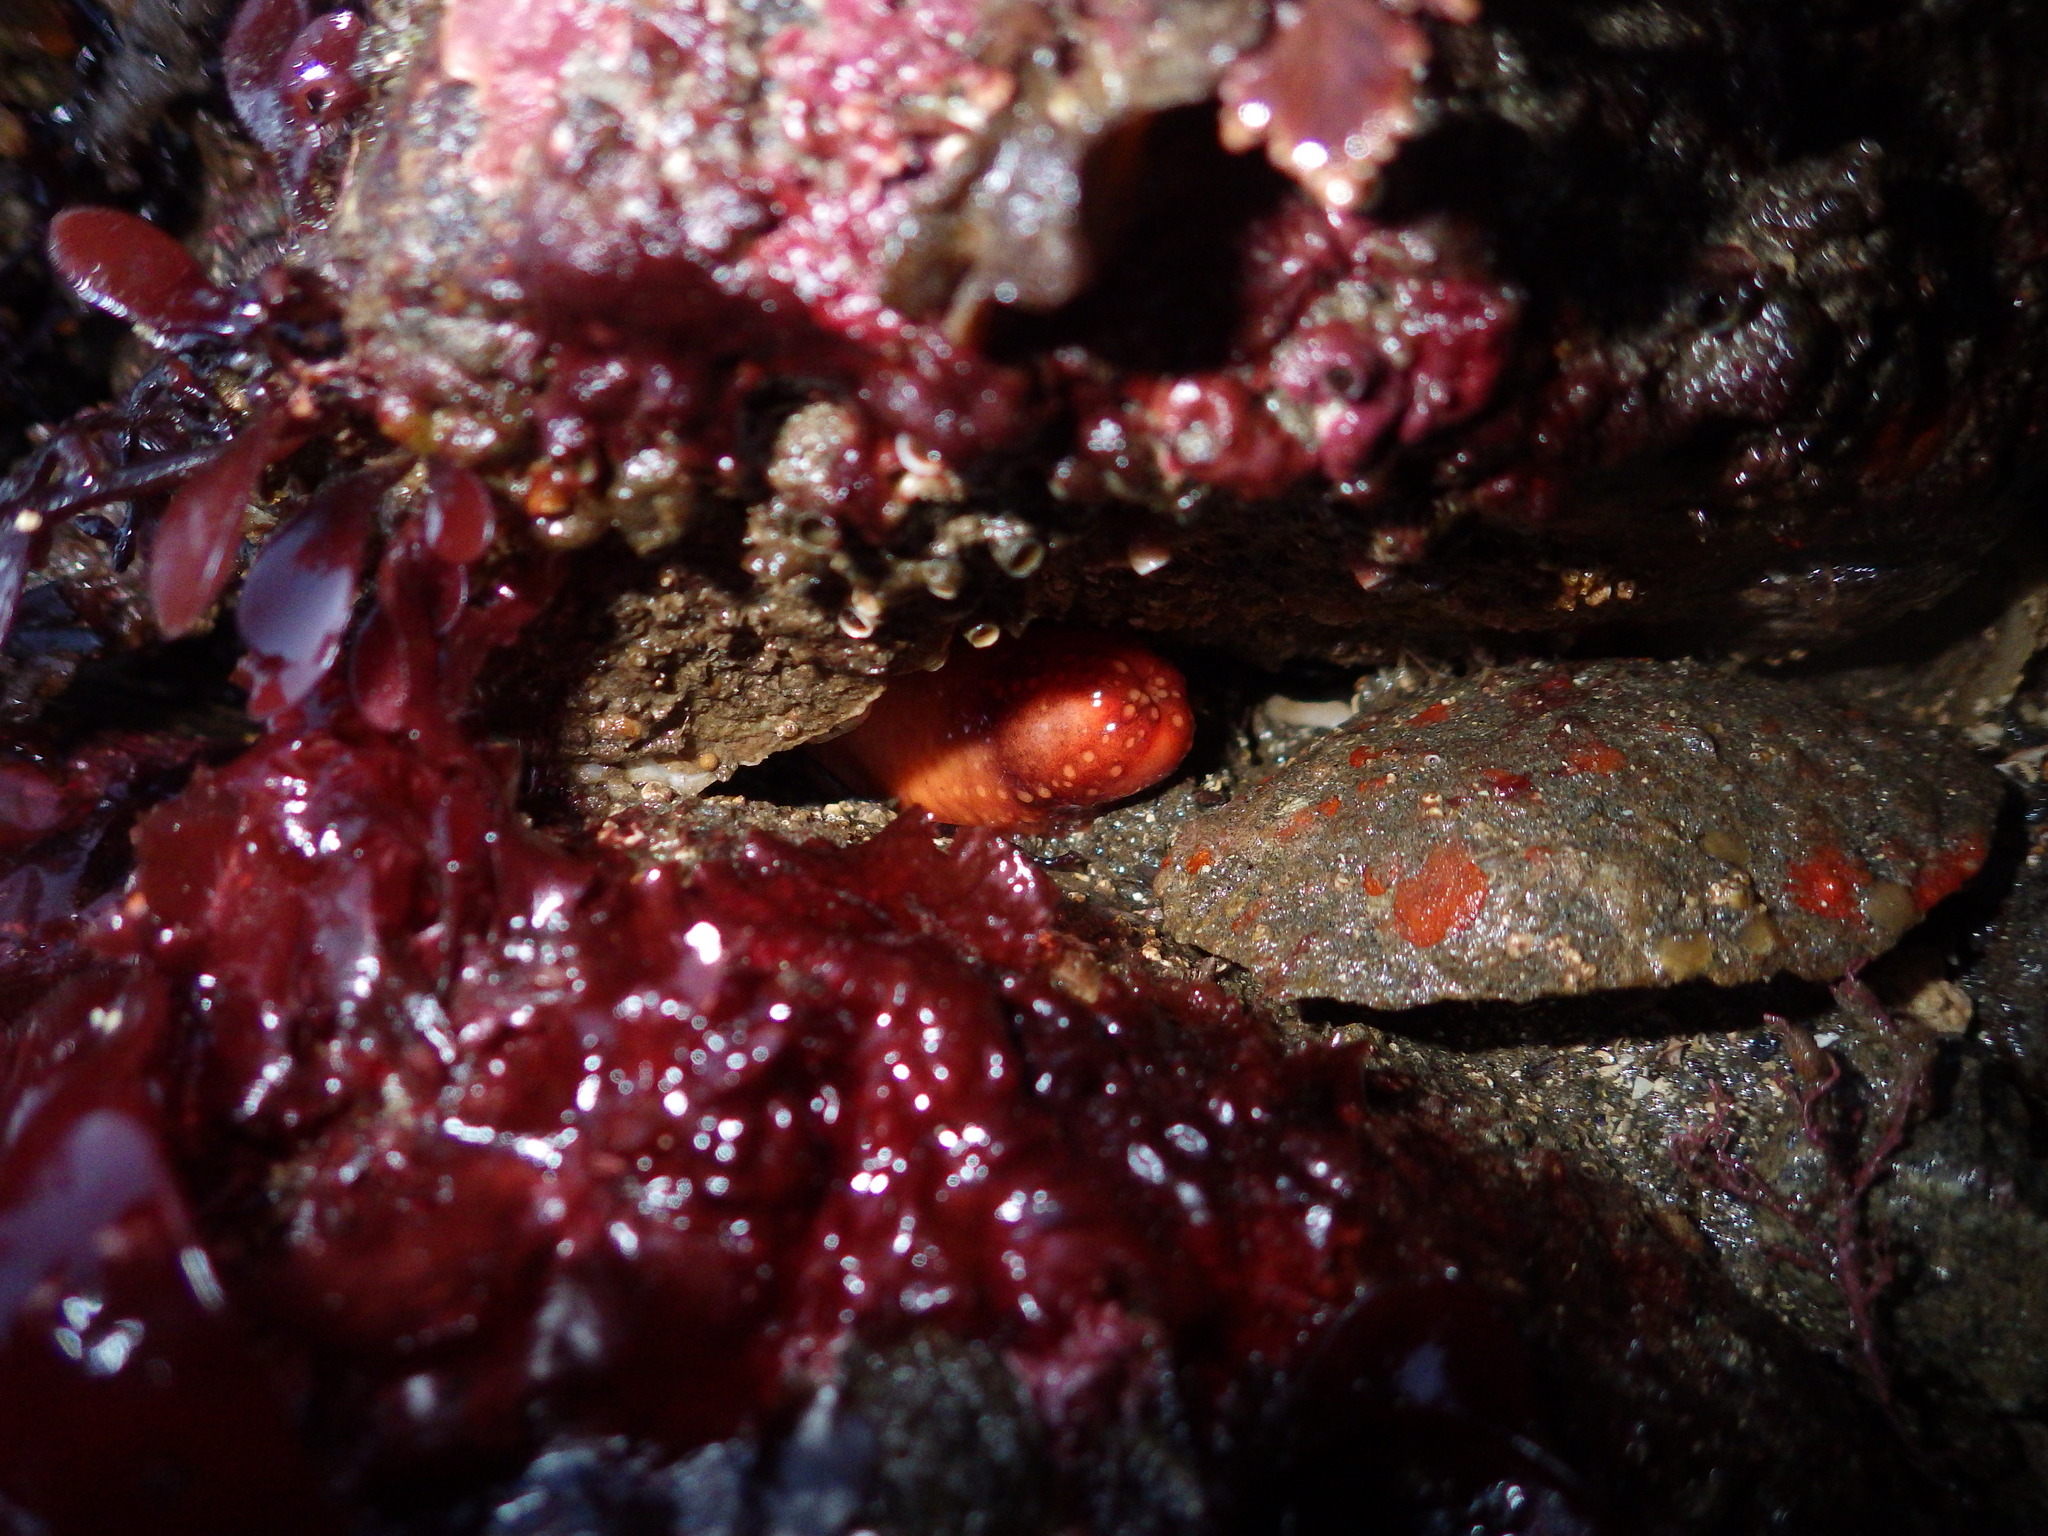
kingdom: Animalia
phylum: Echinodermata
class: Holothuroidea
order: Dendrochirotida
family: Cucumariidae
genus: Cucumaria
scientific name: Cucumaria miniata
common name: Orange sea cucumber
